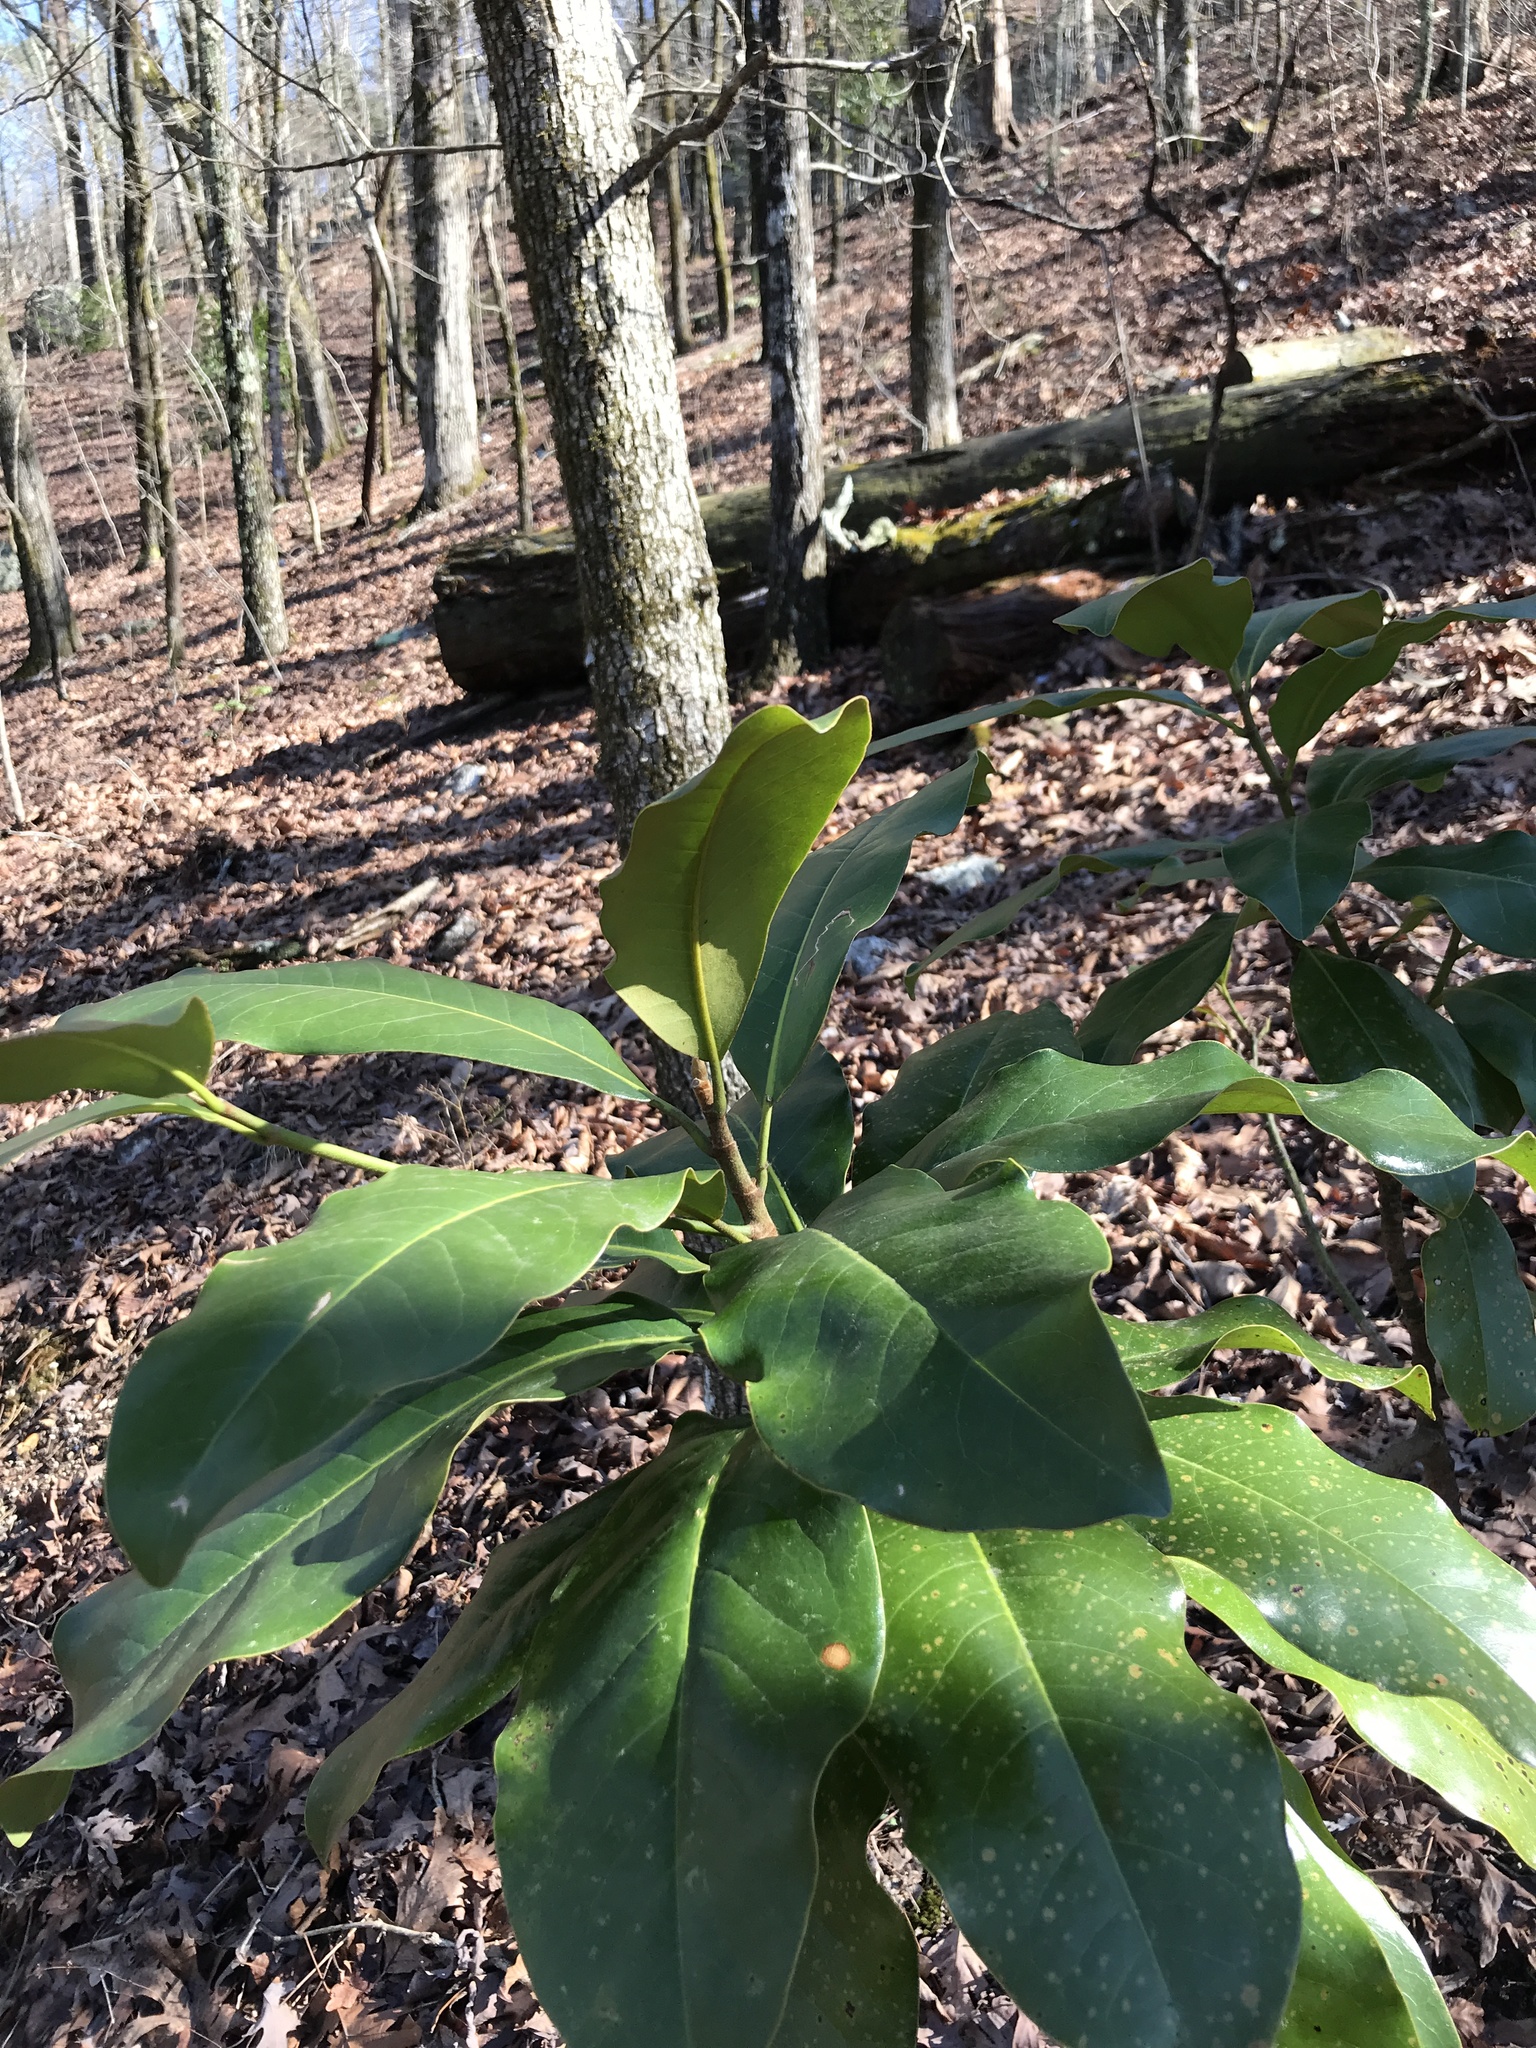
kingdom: Plantae
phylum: Tracheophyta
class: Magnoliopsida
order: Magnoliales
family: Magnoliaceae
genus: Magnolia
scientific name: Magnolia grandiflora
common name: Southern magnolia
